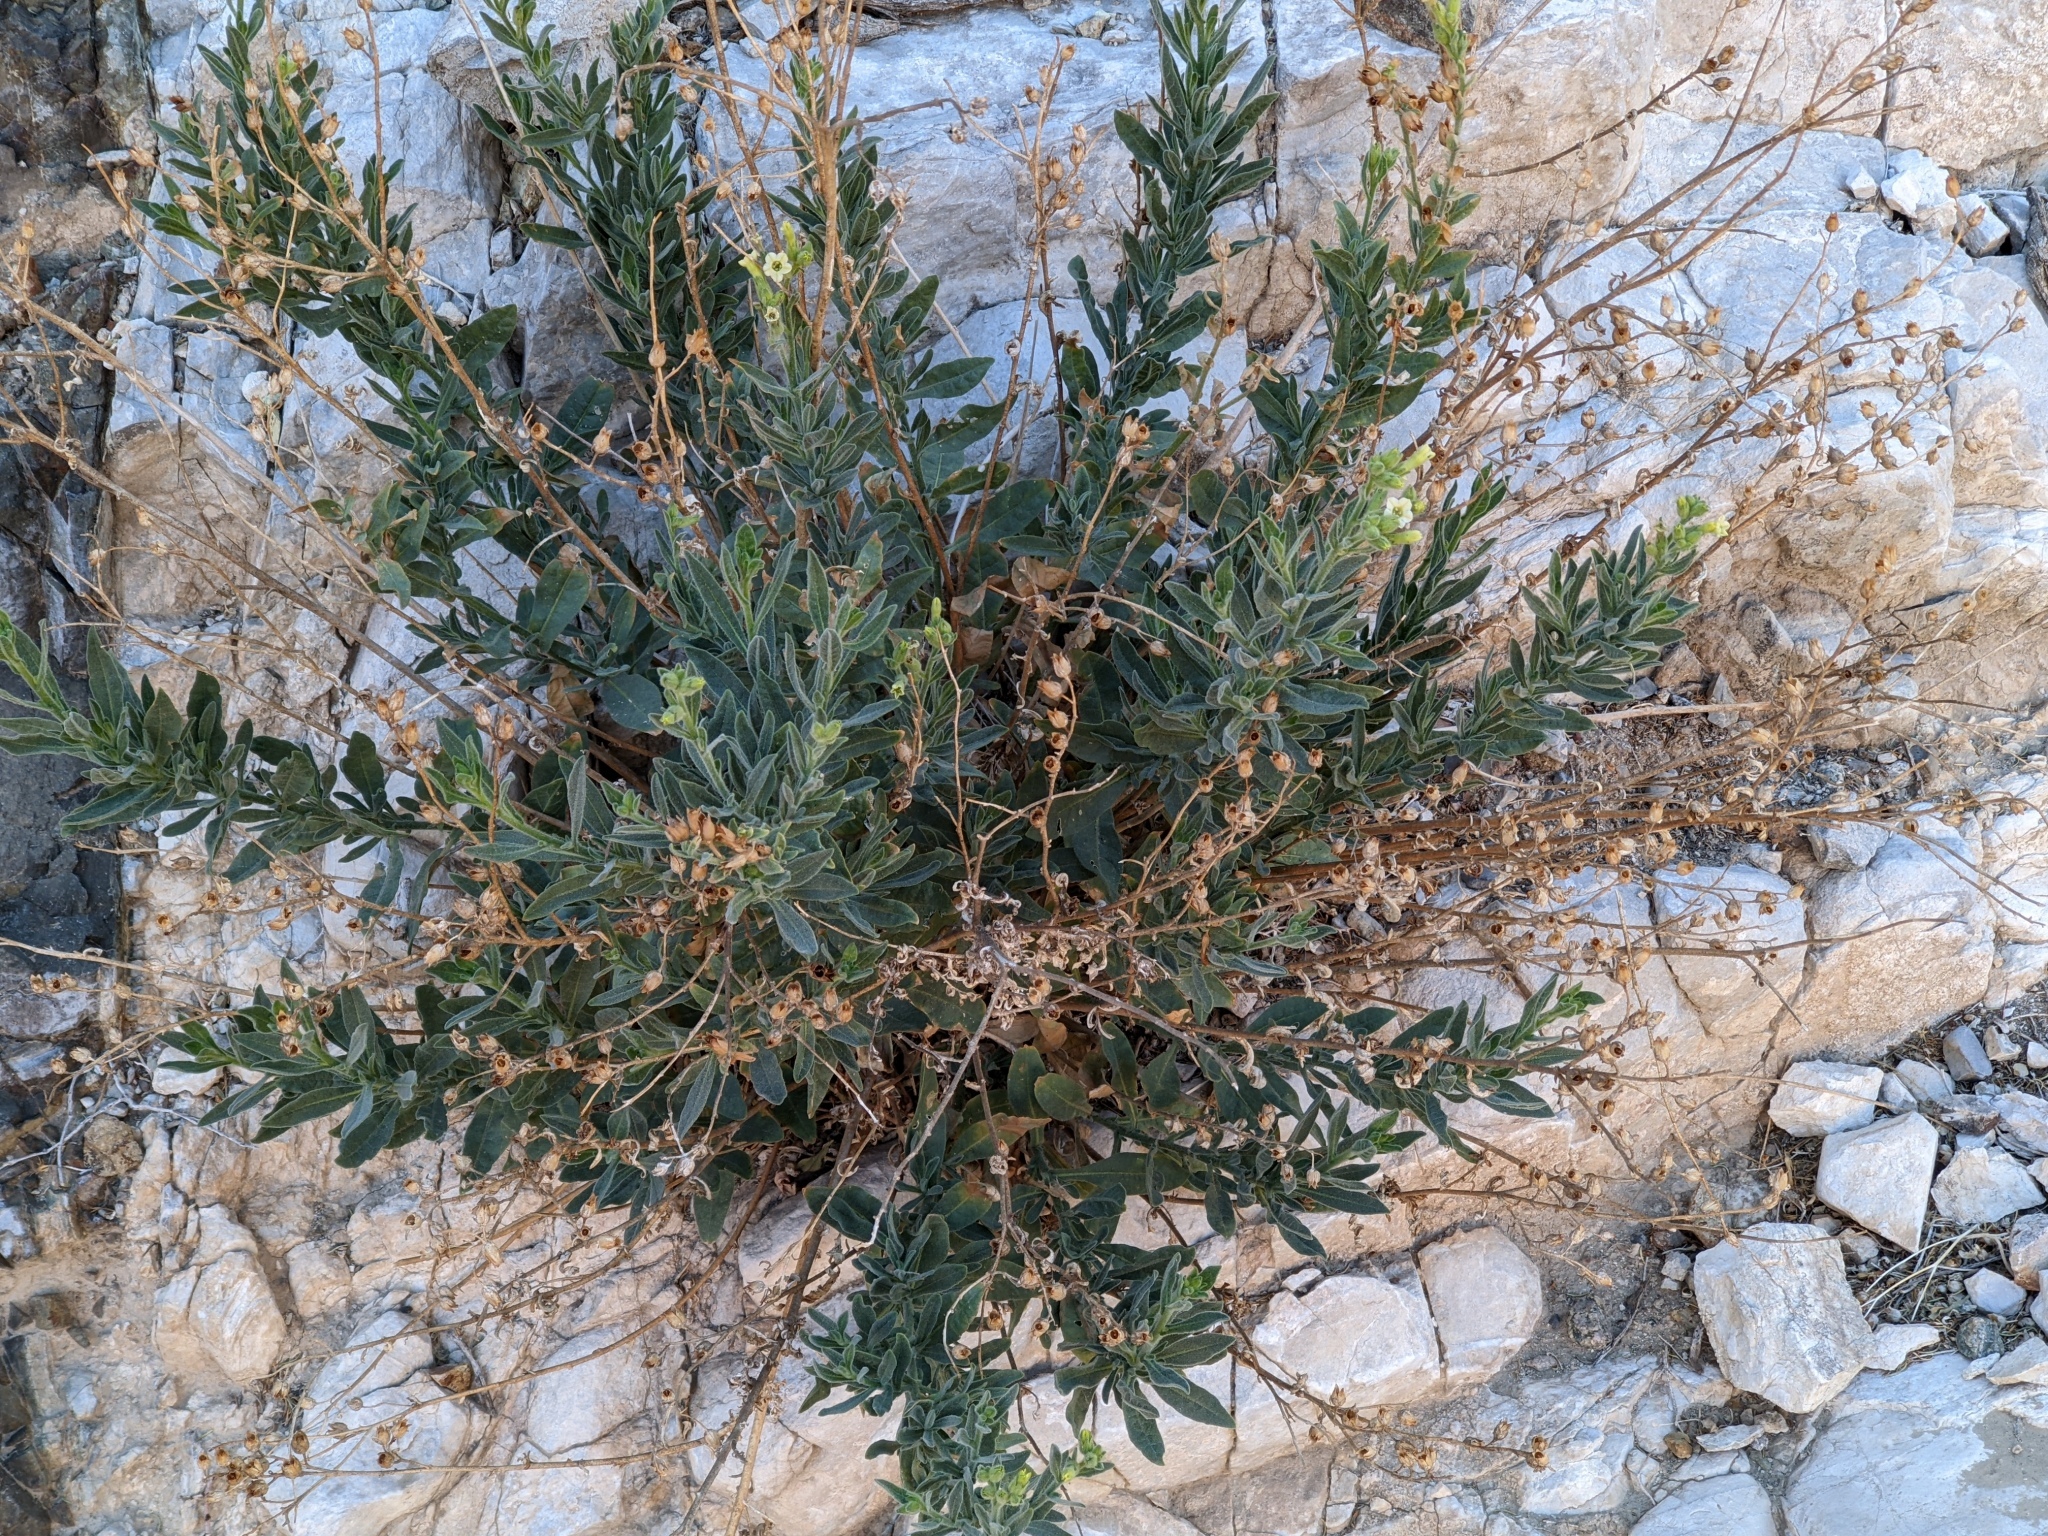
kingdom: Plantae
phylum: Tracheophyta
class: Magnoliopsida
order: Solanales
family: Solanaceae
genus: Nicotiana
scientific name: Nicotiana obtusifolia
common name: Desert tobacco
